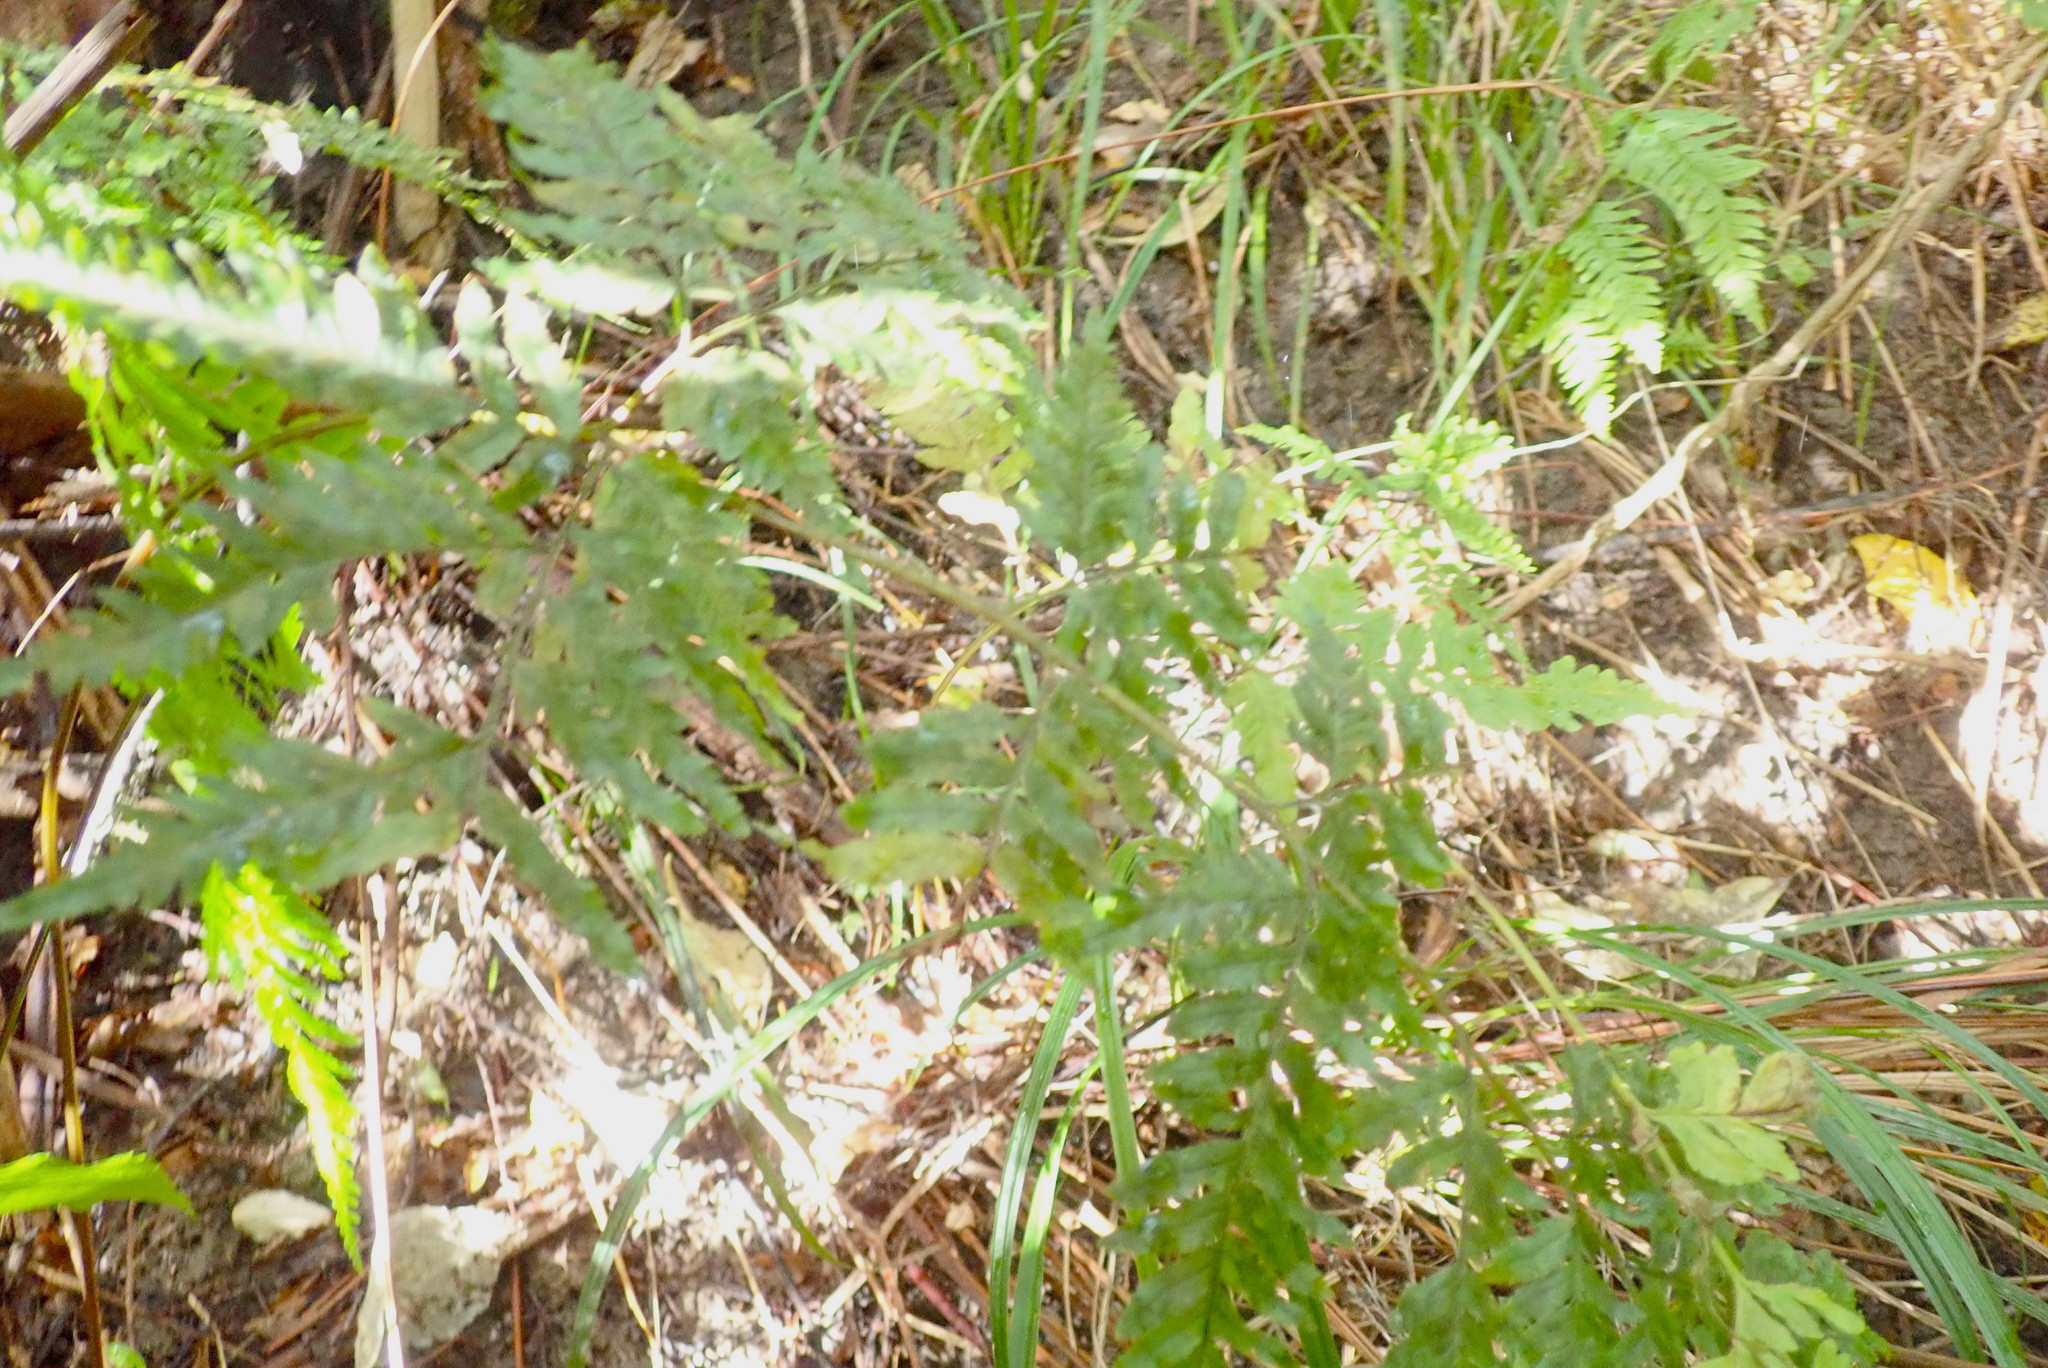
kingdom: Plantae
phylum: Tracheophyta
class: Polypodiopsida
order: Polypodiales
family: Pteridaceae
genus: Pteris
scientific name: Pteris tremula
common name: Australian brake
